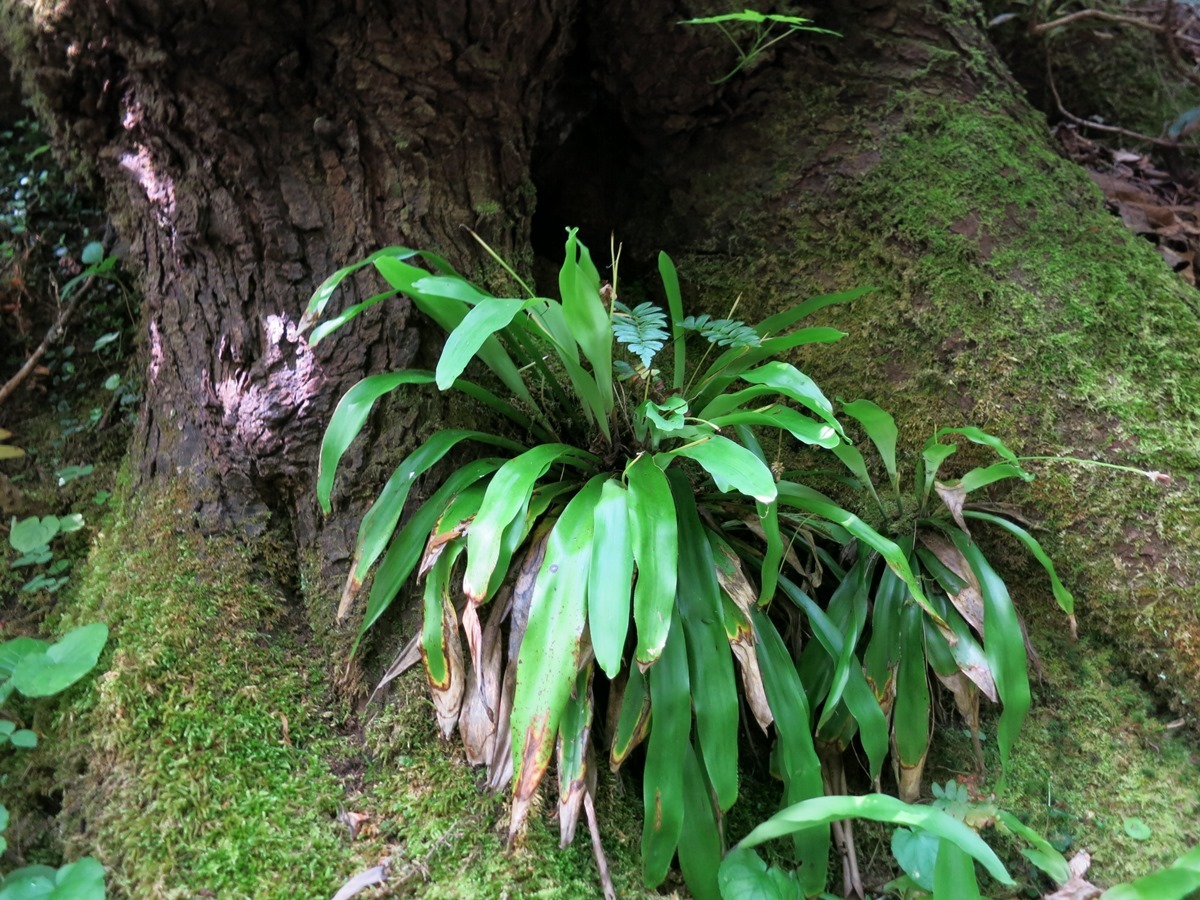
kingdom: Plantae
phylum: Tracheophyta
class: Liliopsida
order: Poales
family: Cyperaceae
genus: Carex
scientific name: Carex fraseriana
